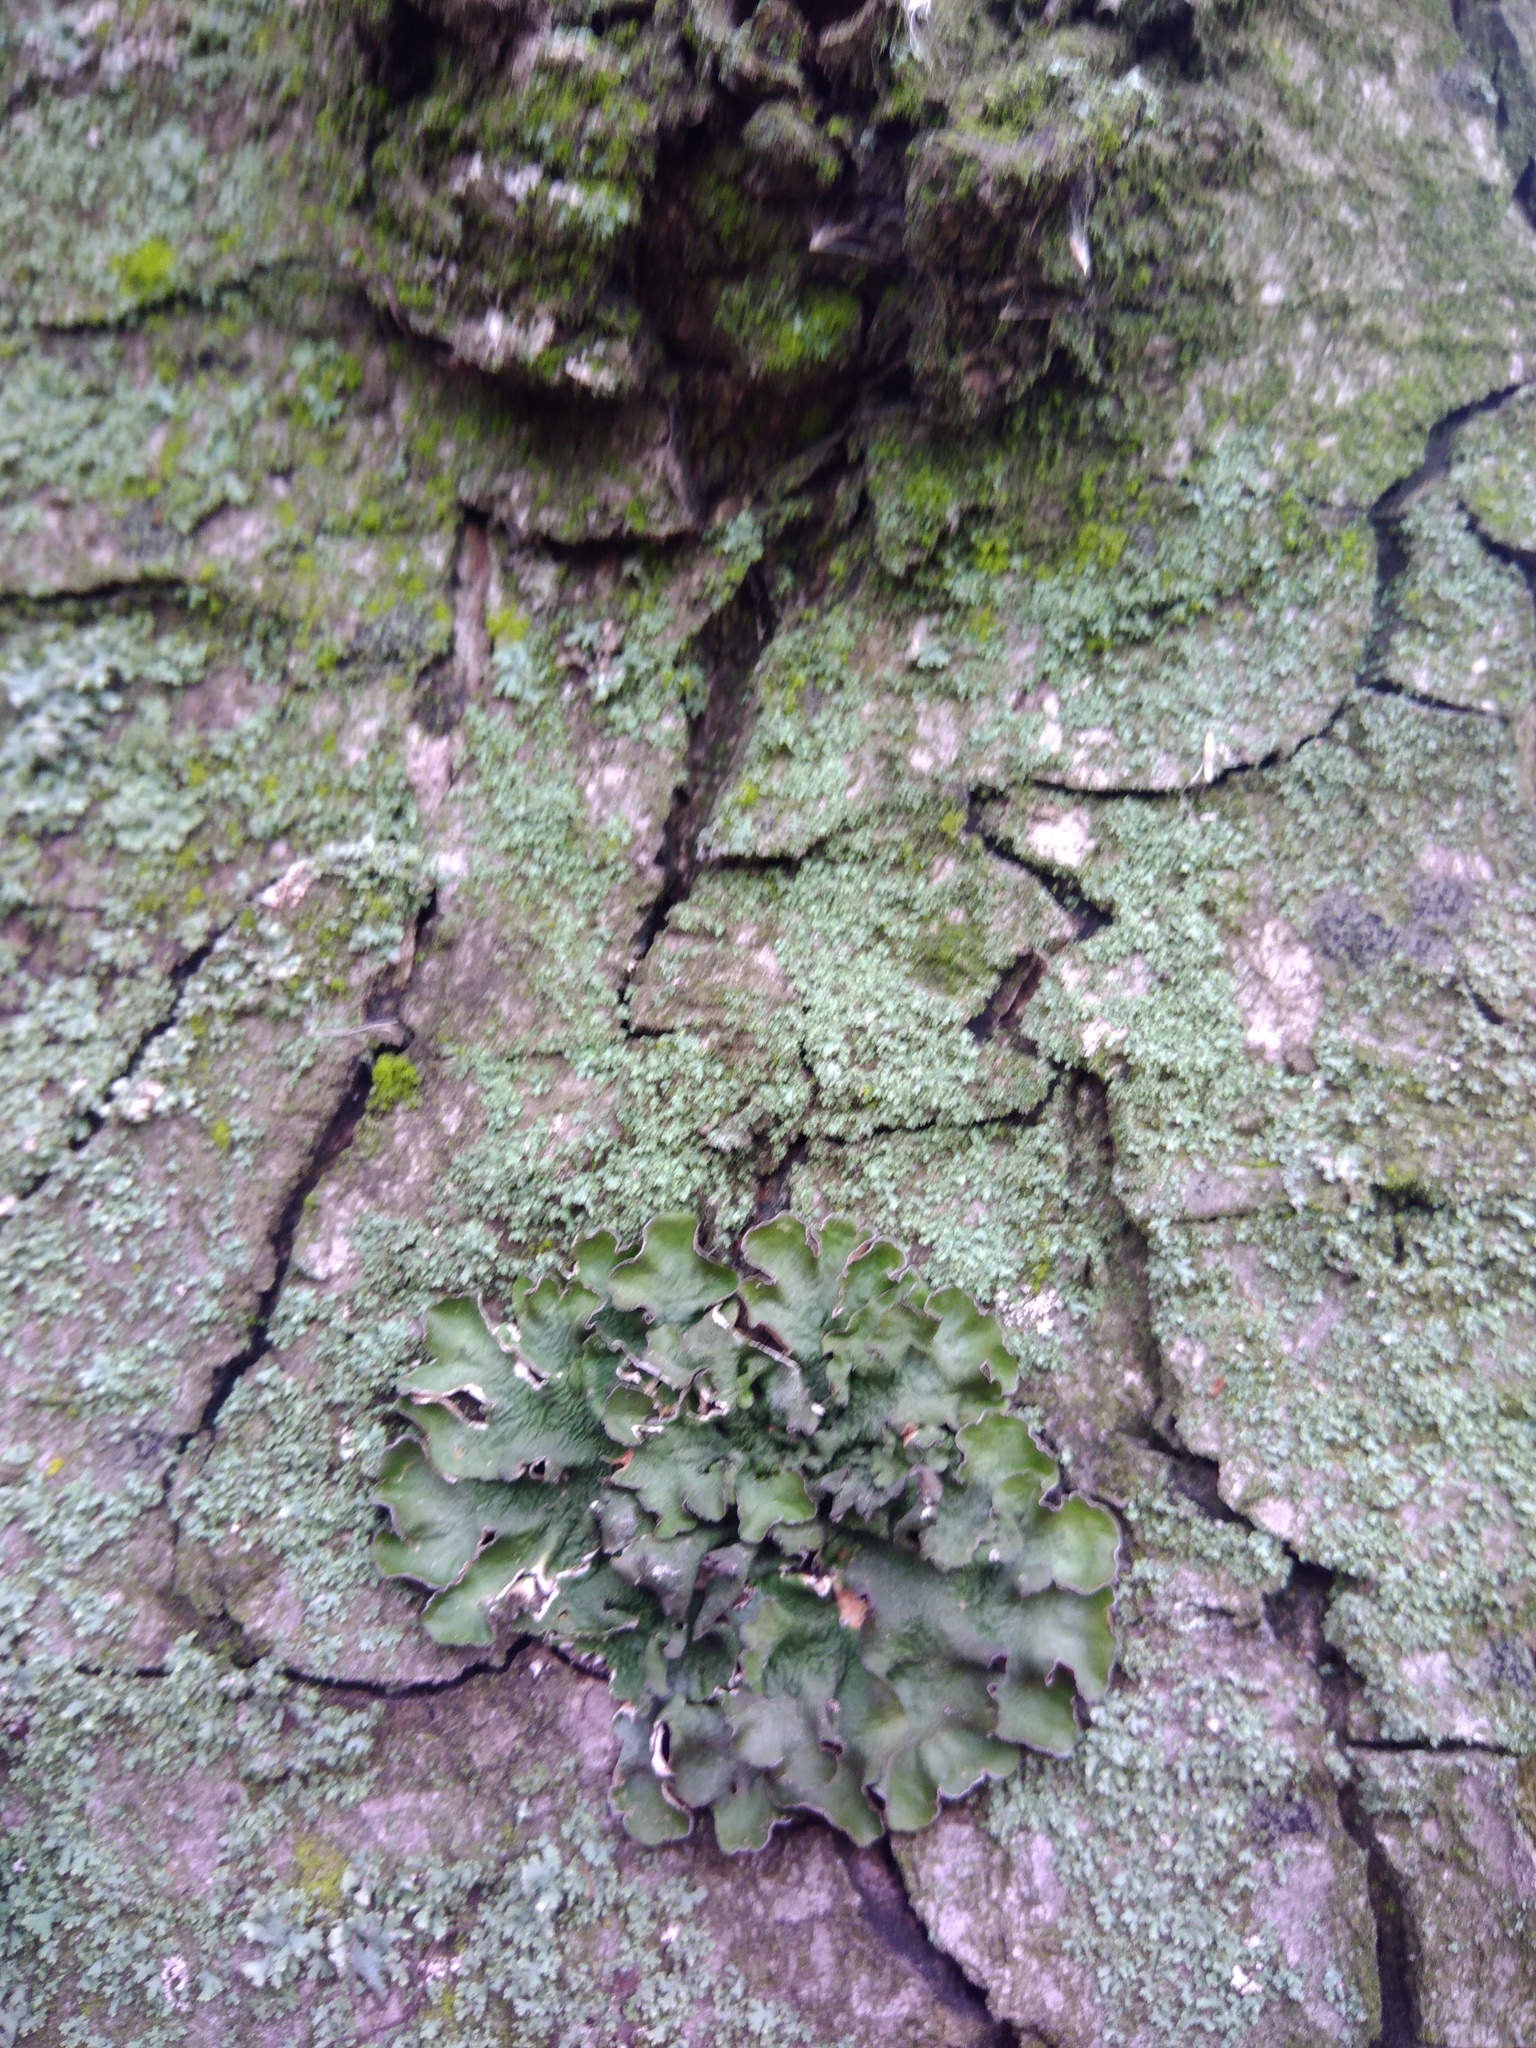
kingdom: Fungi
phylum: Ascomycota
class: Lecanoromycetes
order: Lecanorales
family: Parmeliaceae
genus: Pleurosticta
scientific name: Pleurosticta acetabulum
